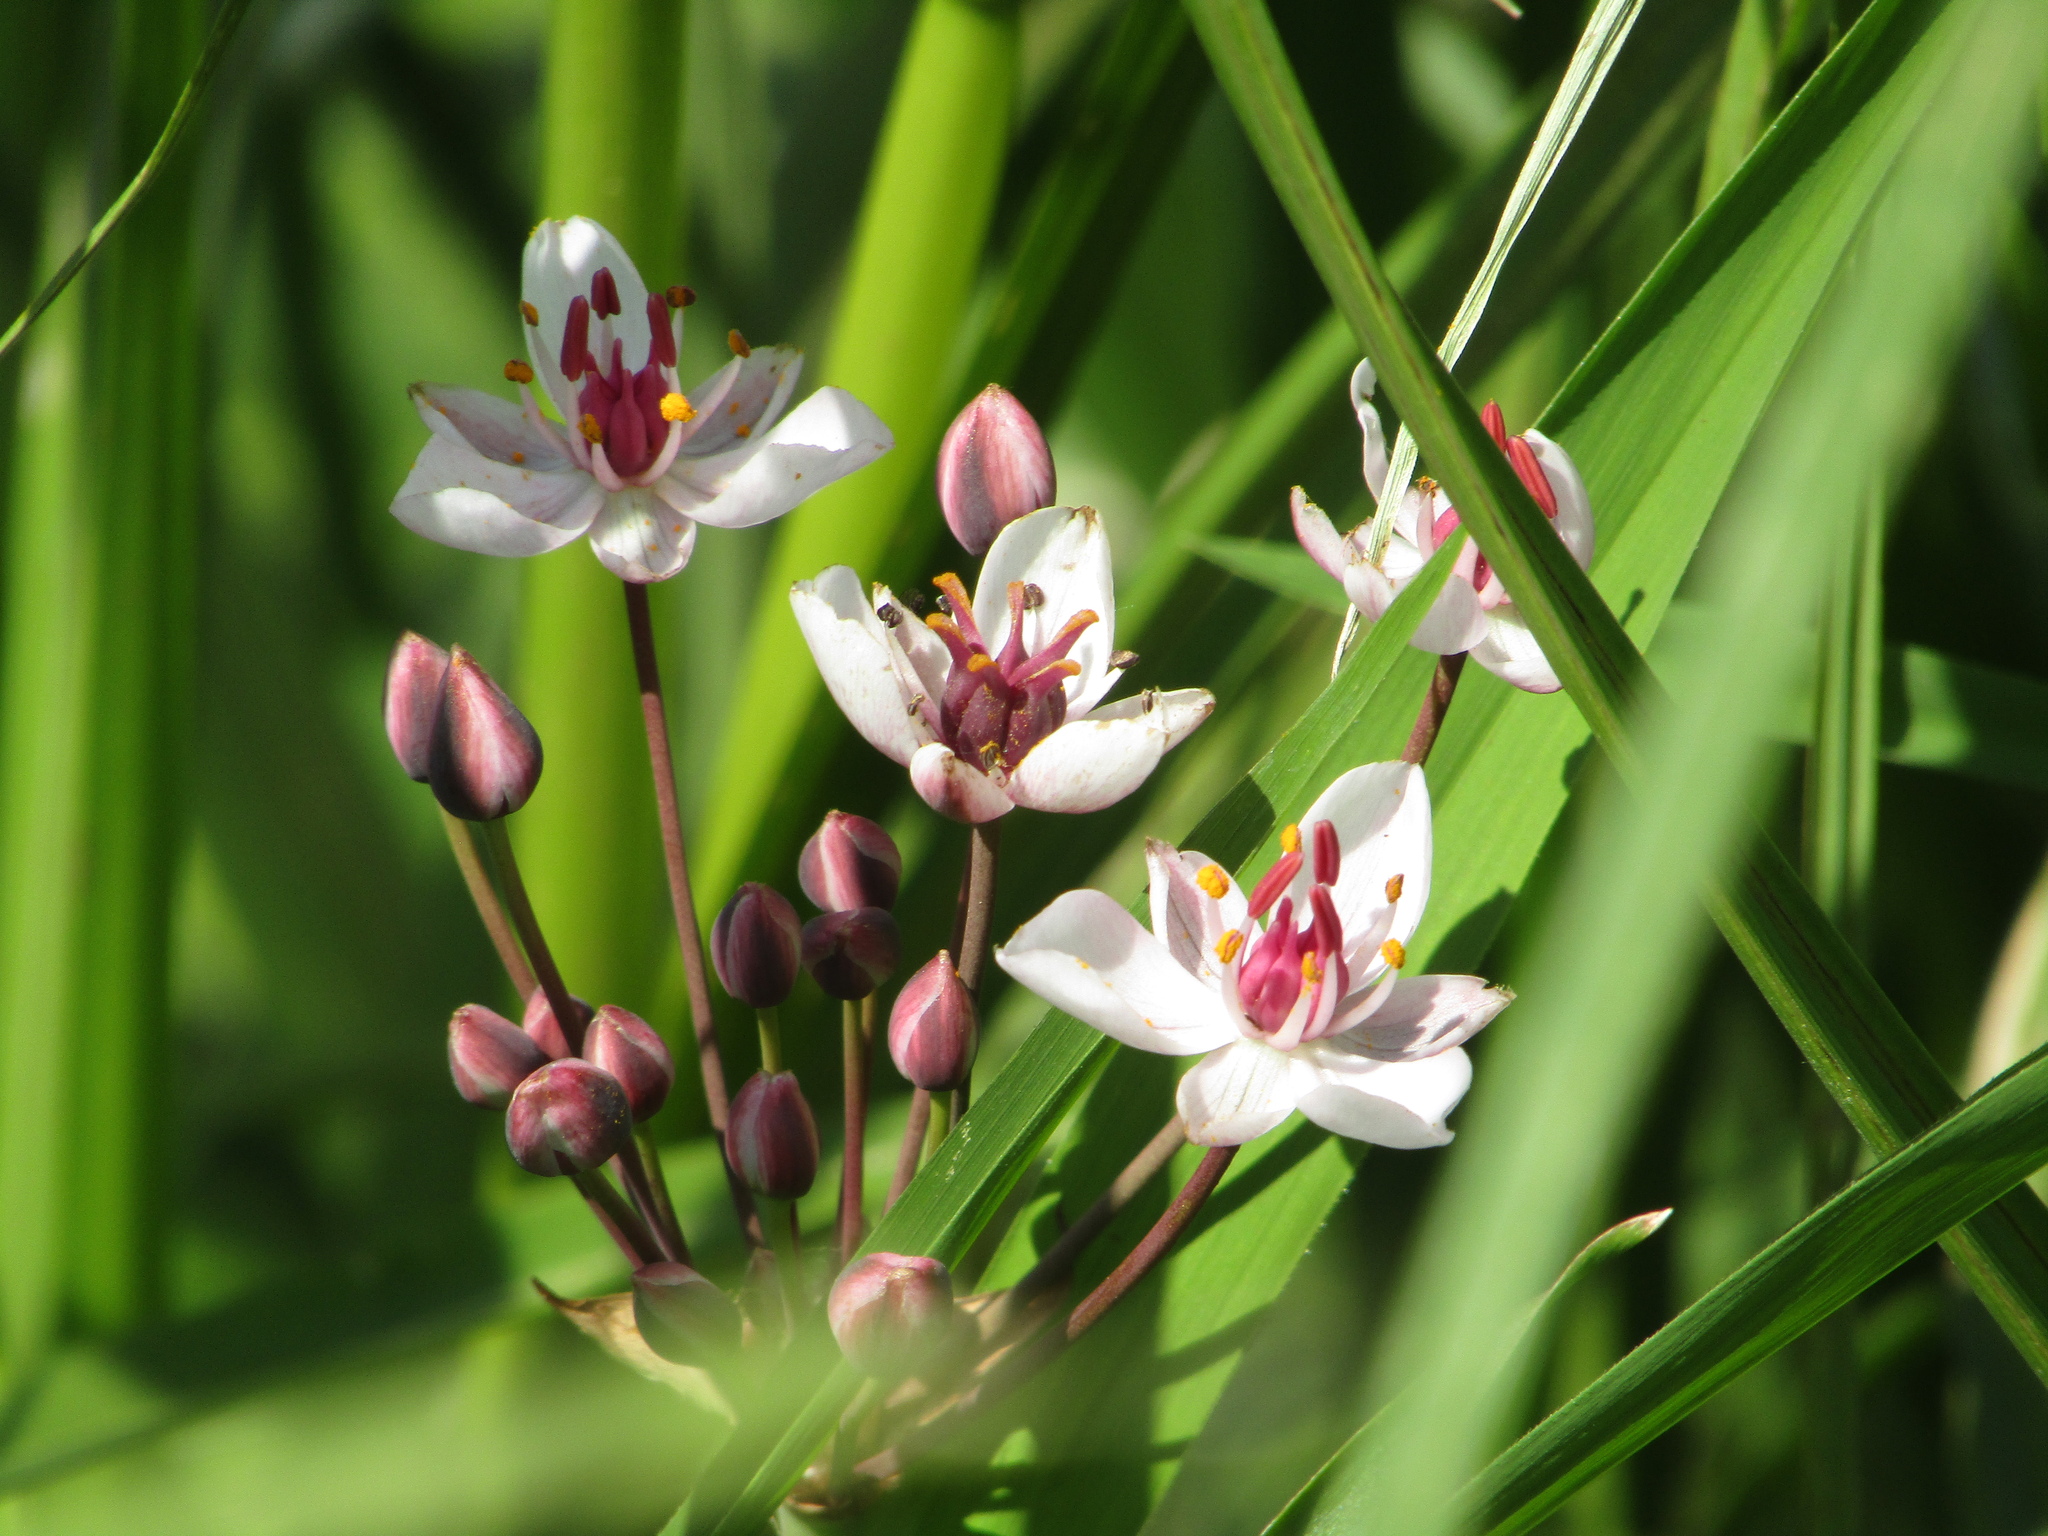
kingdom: Plantae
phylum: Tracheophyta
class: Liliopsida
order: Alismatales
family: Butomaceae
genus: Butomus
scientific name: Butomus umbellatus
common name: Flowering-rush
